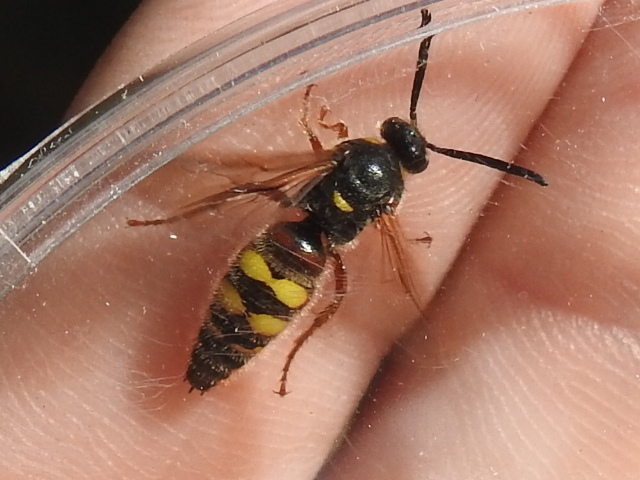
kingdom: Animalia
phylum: Arthropoda
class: Insecta
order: Hymenoptera
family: Scoliidae
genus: Scolia
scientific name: Scolia nobilitata
